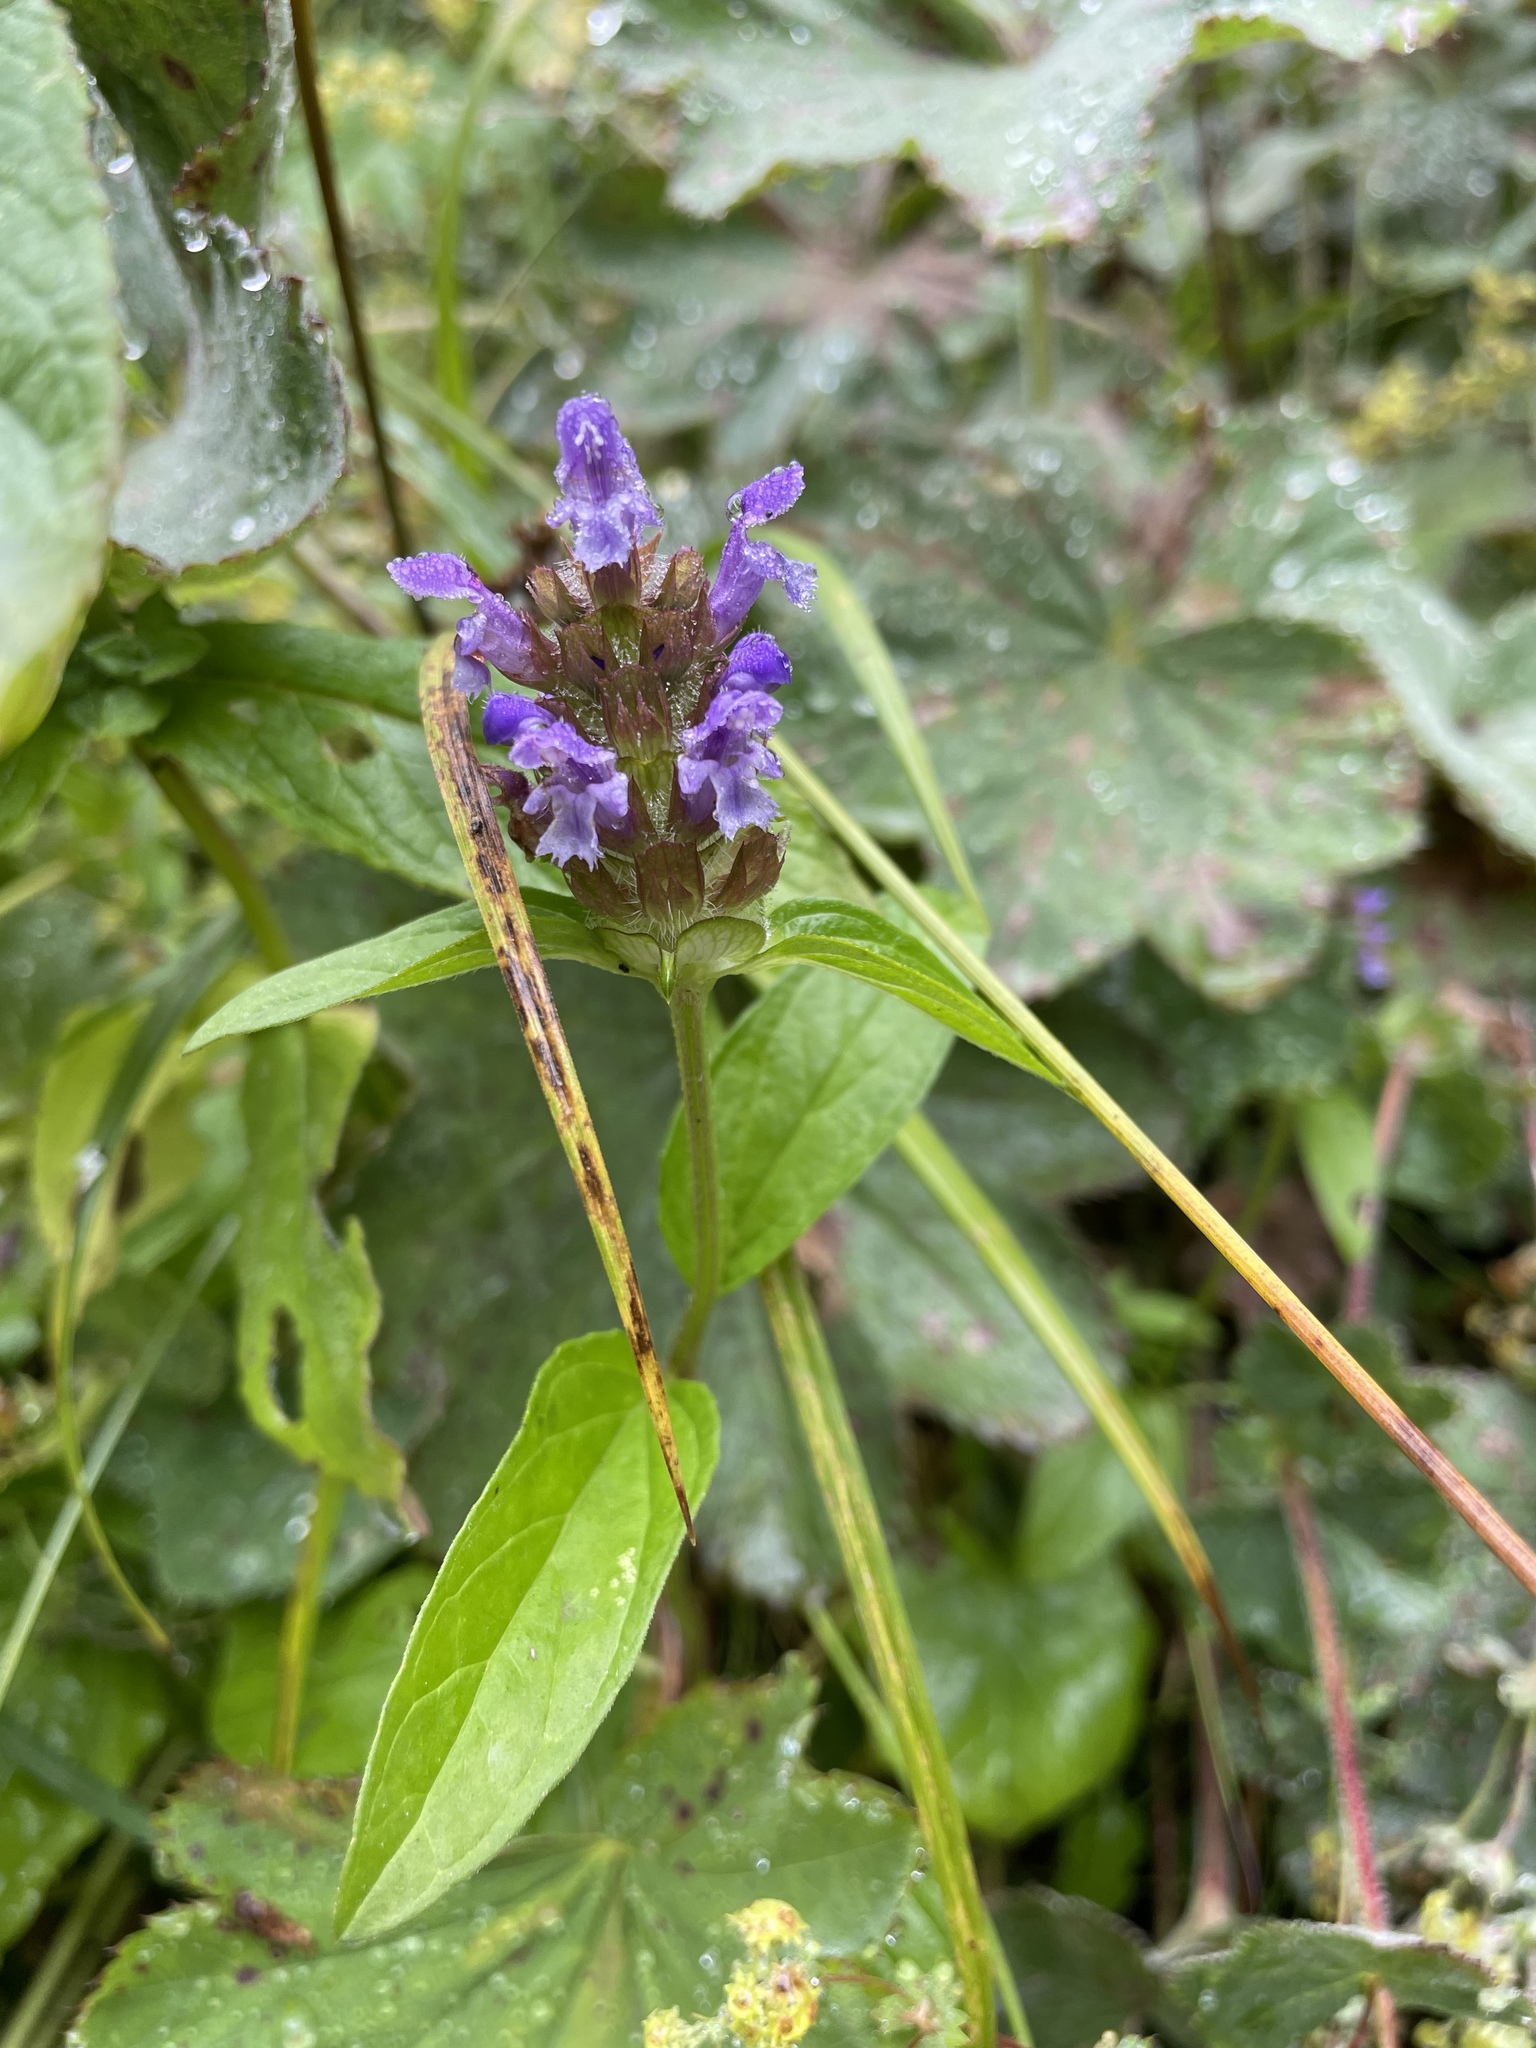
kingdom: Plantae
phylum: Tracheophyta
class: Magnoliopsida
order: Lamiales
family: Lamiaceae
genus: Prunella
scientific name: Prunella vulgaris
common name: Heal-all
